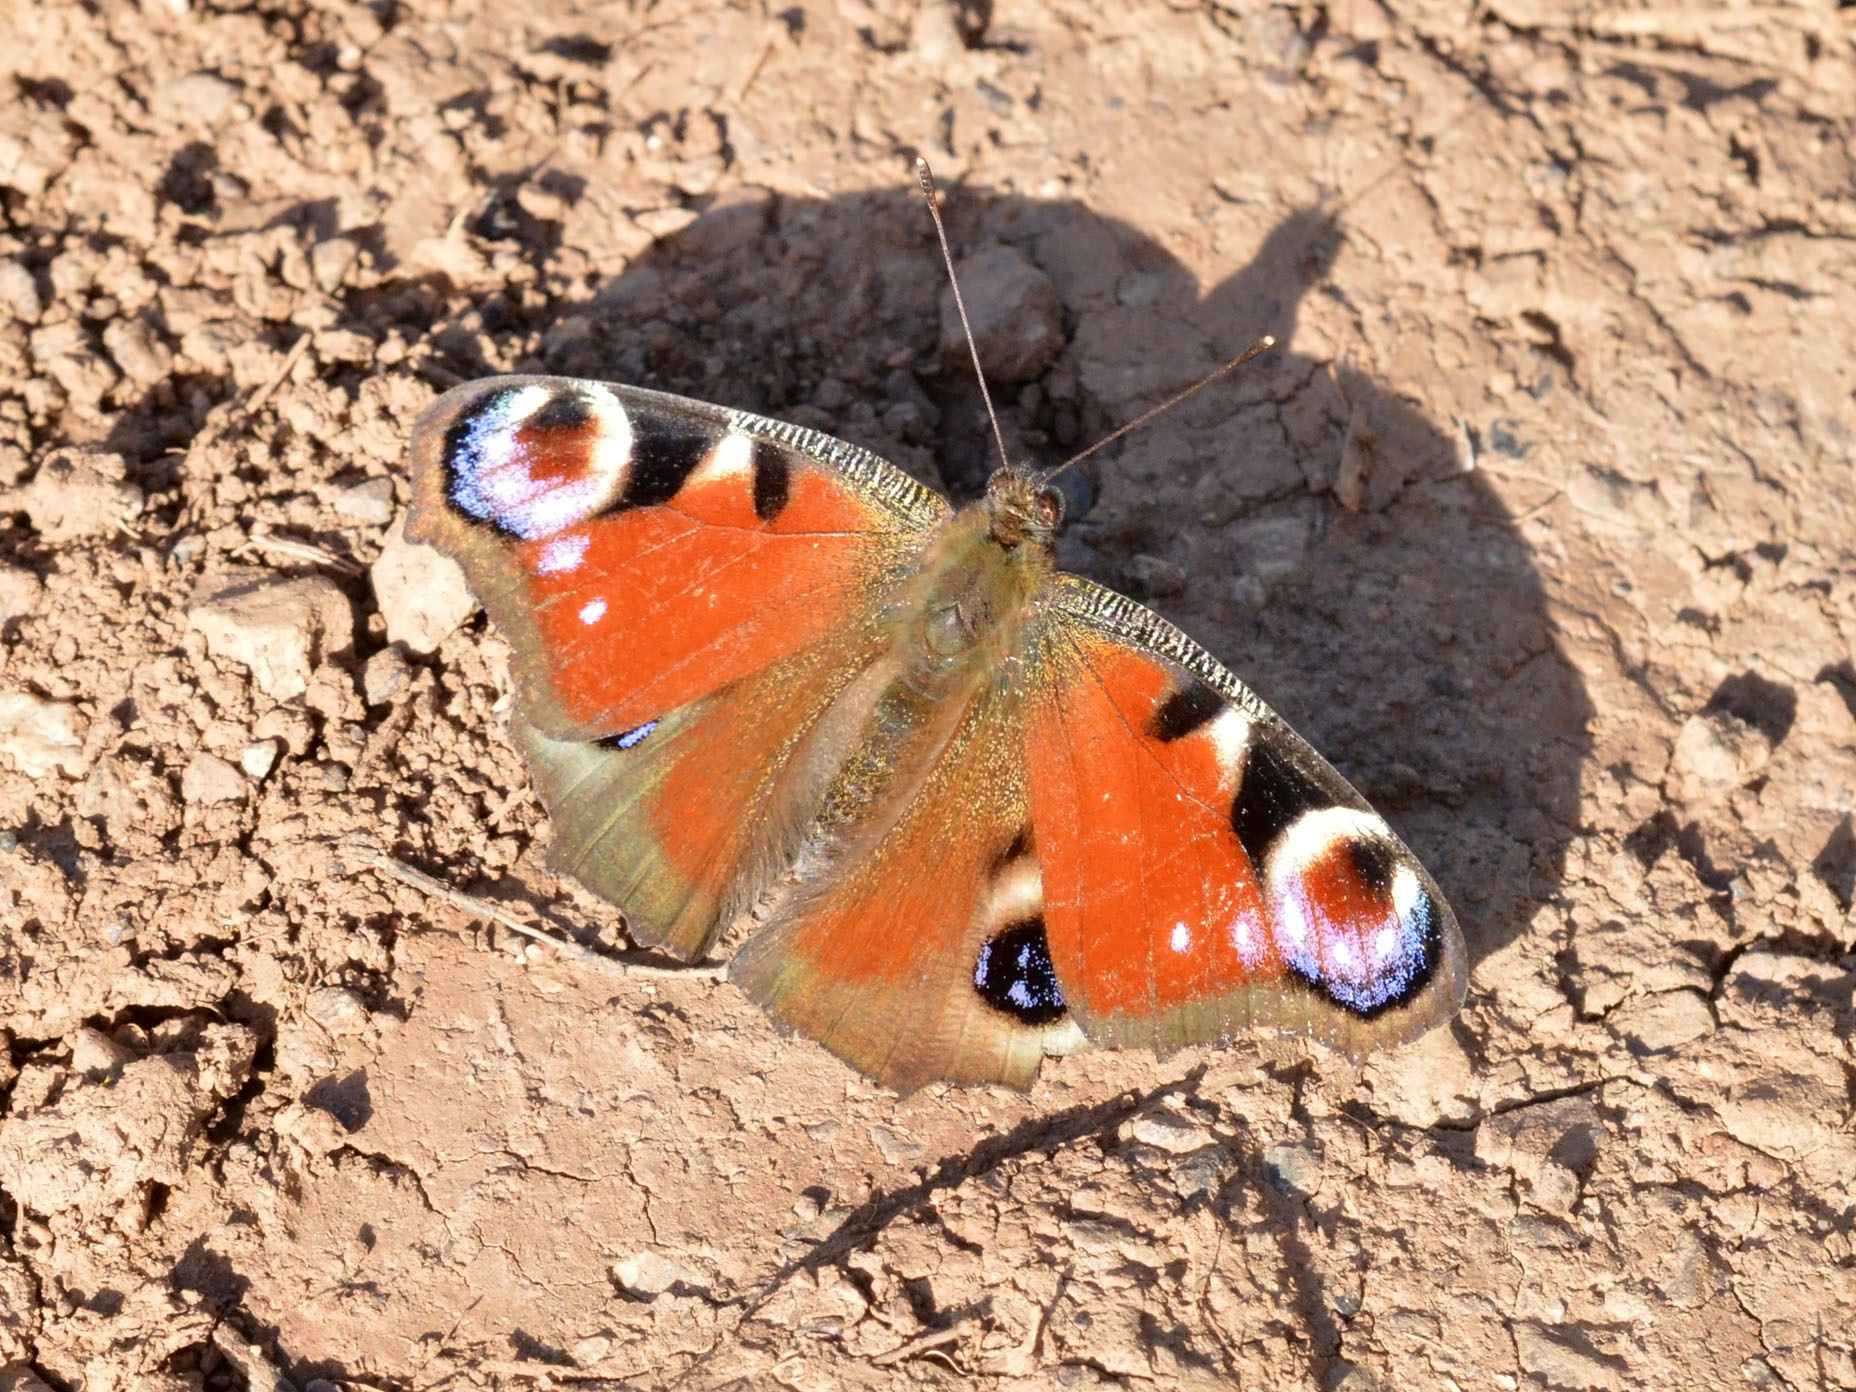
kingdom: Animalia
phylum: Arthropoda
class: Insecta
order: Lepidoptera
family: Nymphalidae
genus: Aglais
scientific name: Aglais io
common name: Peacock
